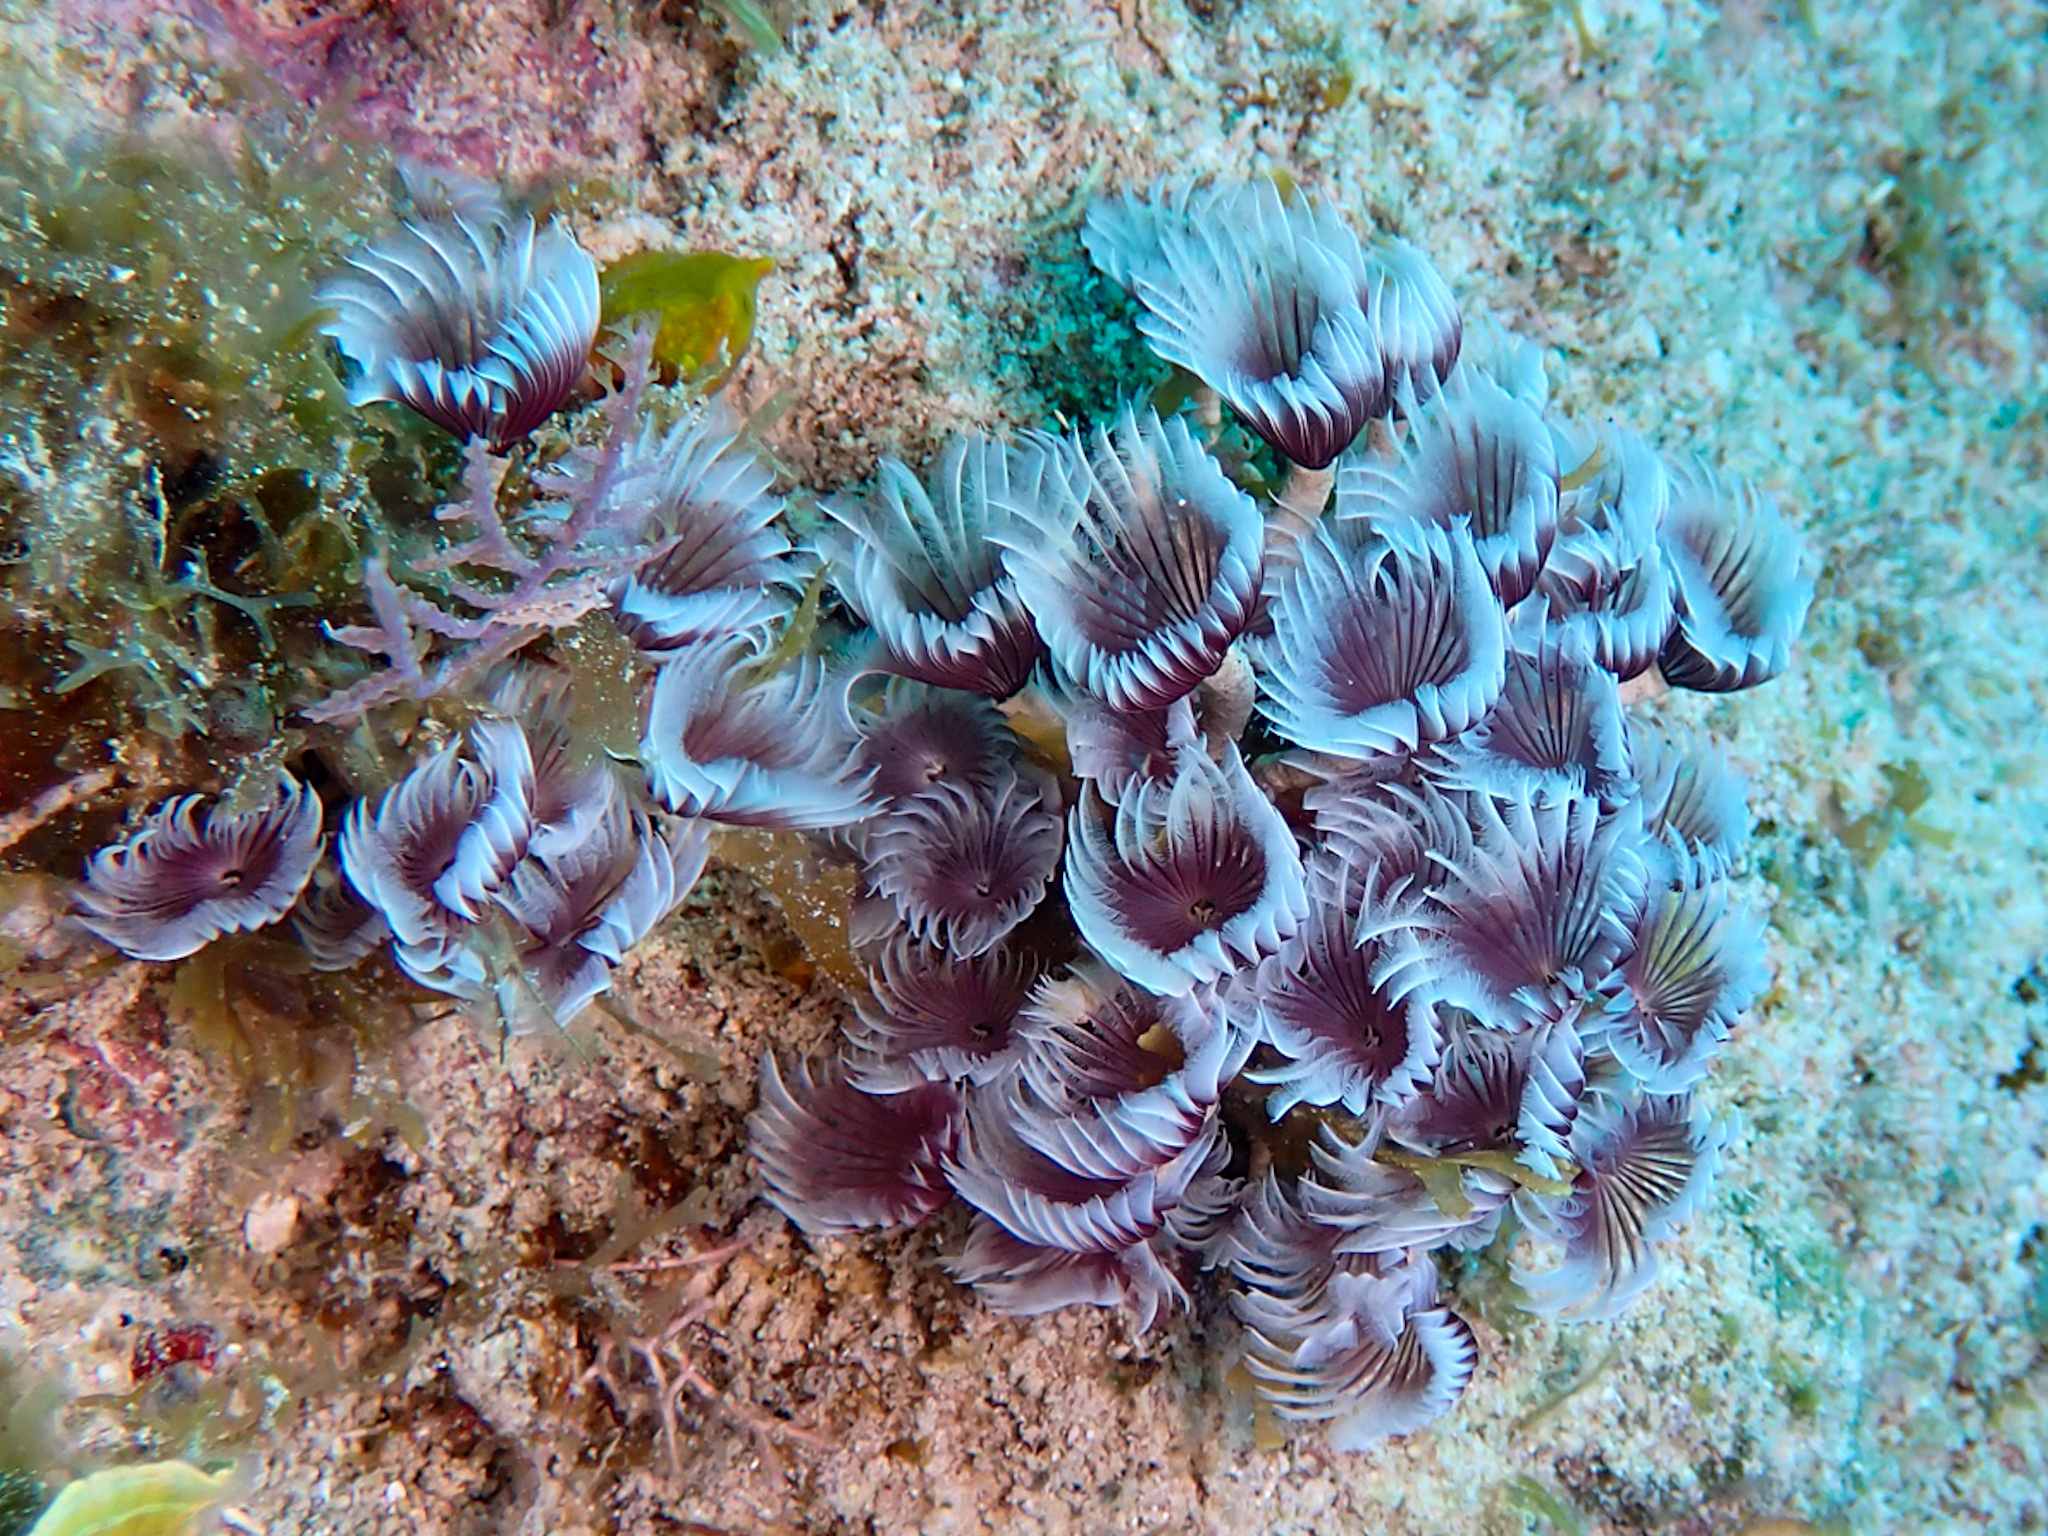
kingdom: Animalia
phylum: Annelida
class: Polychaeta
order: Sabellida
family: Sabellidae
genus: Bispira
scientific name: Bispira brunnea
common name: Social feather duster
